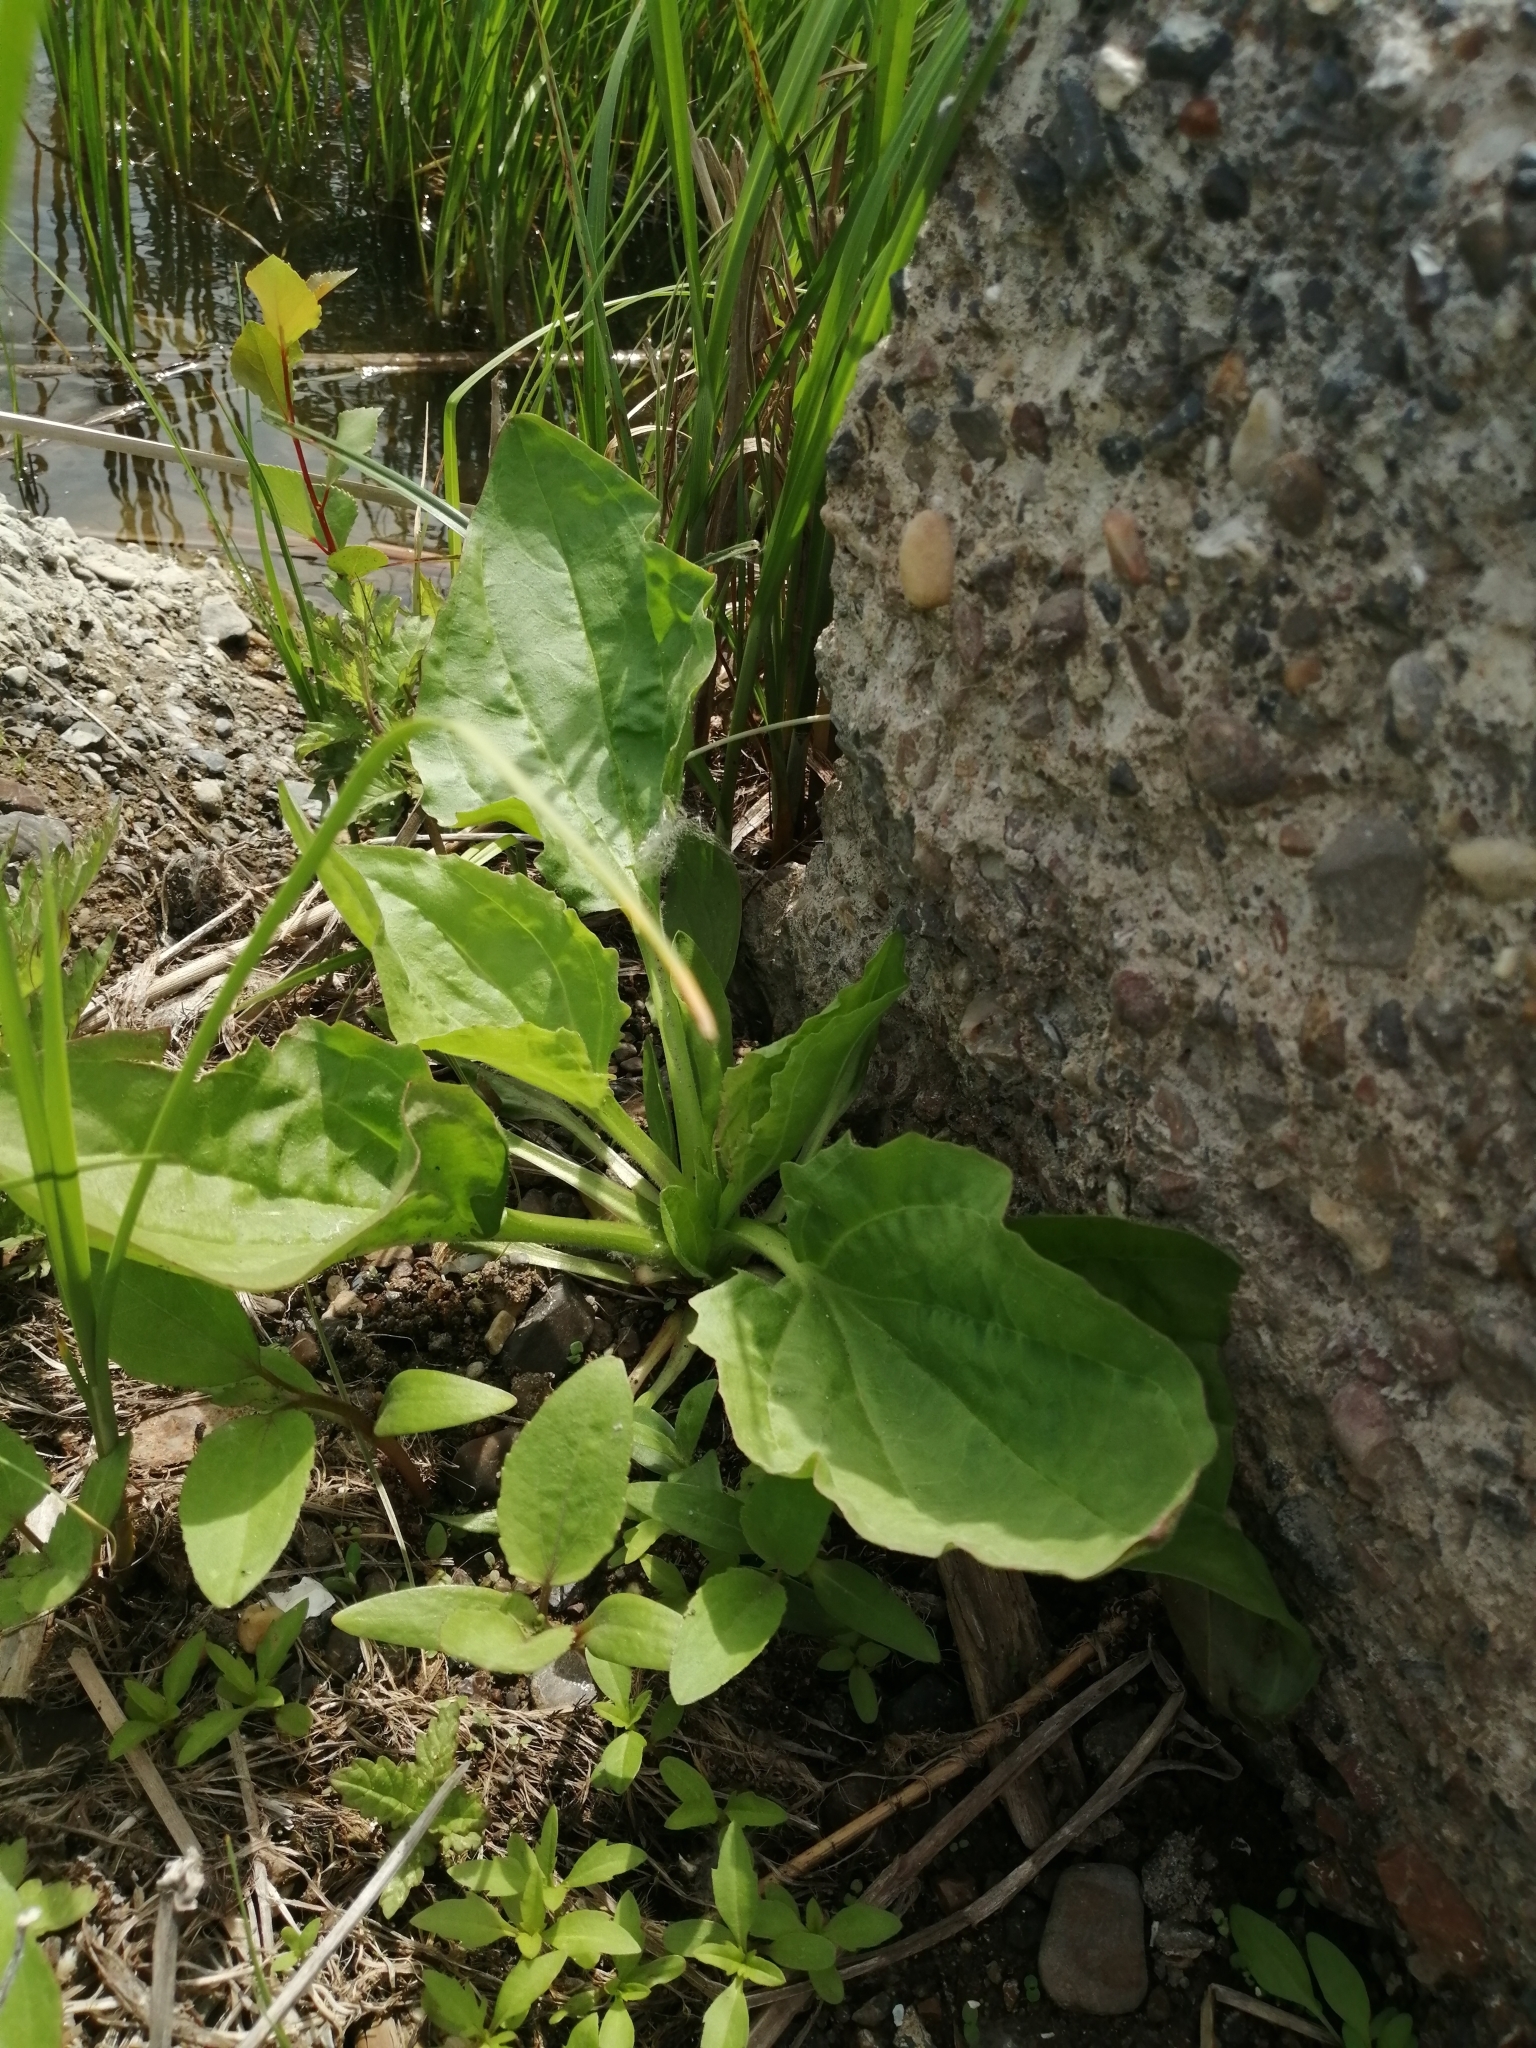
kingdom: Plantae
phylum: Tracheophyta
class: Magnoliopsida
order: Lamiales
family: Plantaginaceae
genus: Plantago
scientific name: Plantago major
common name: Common plantain
